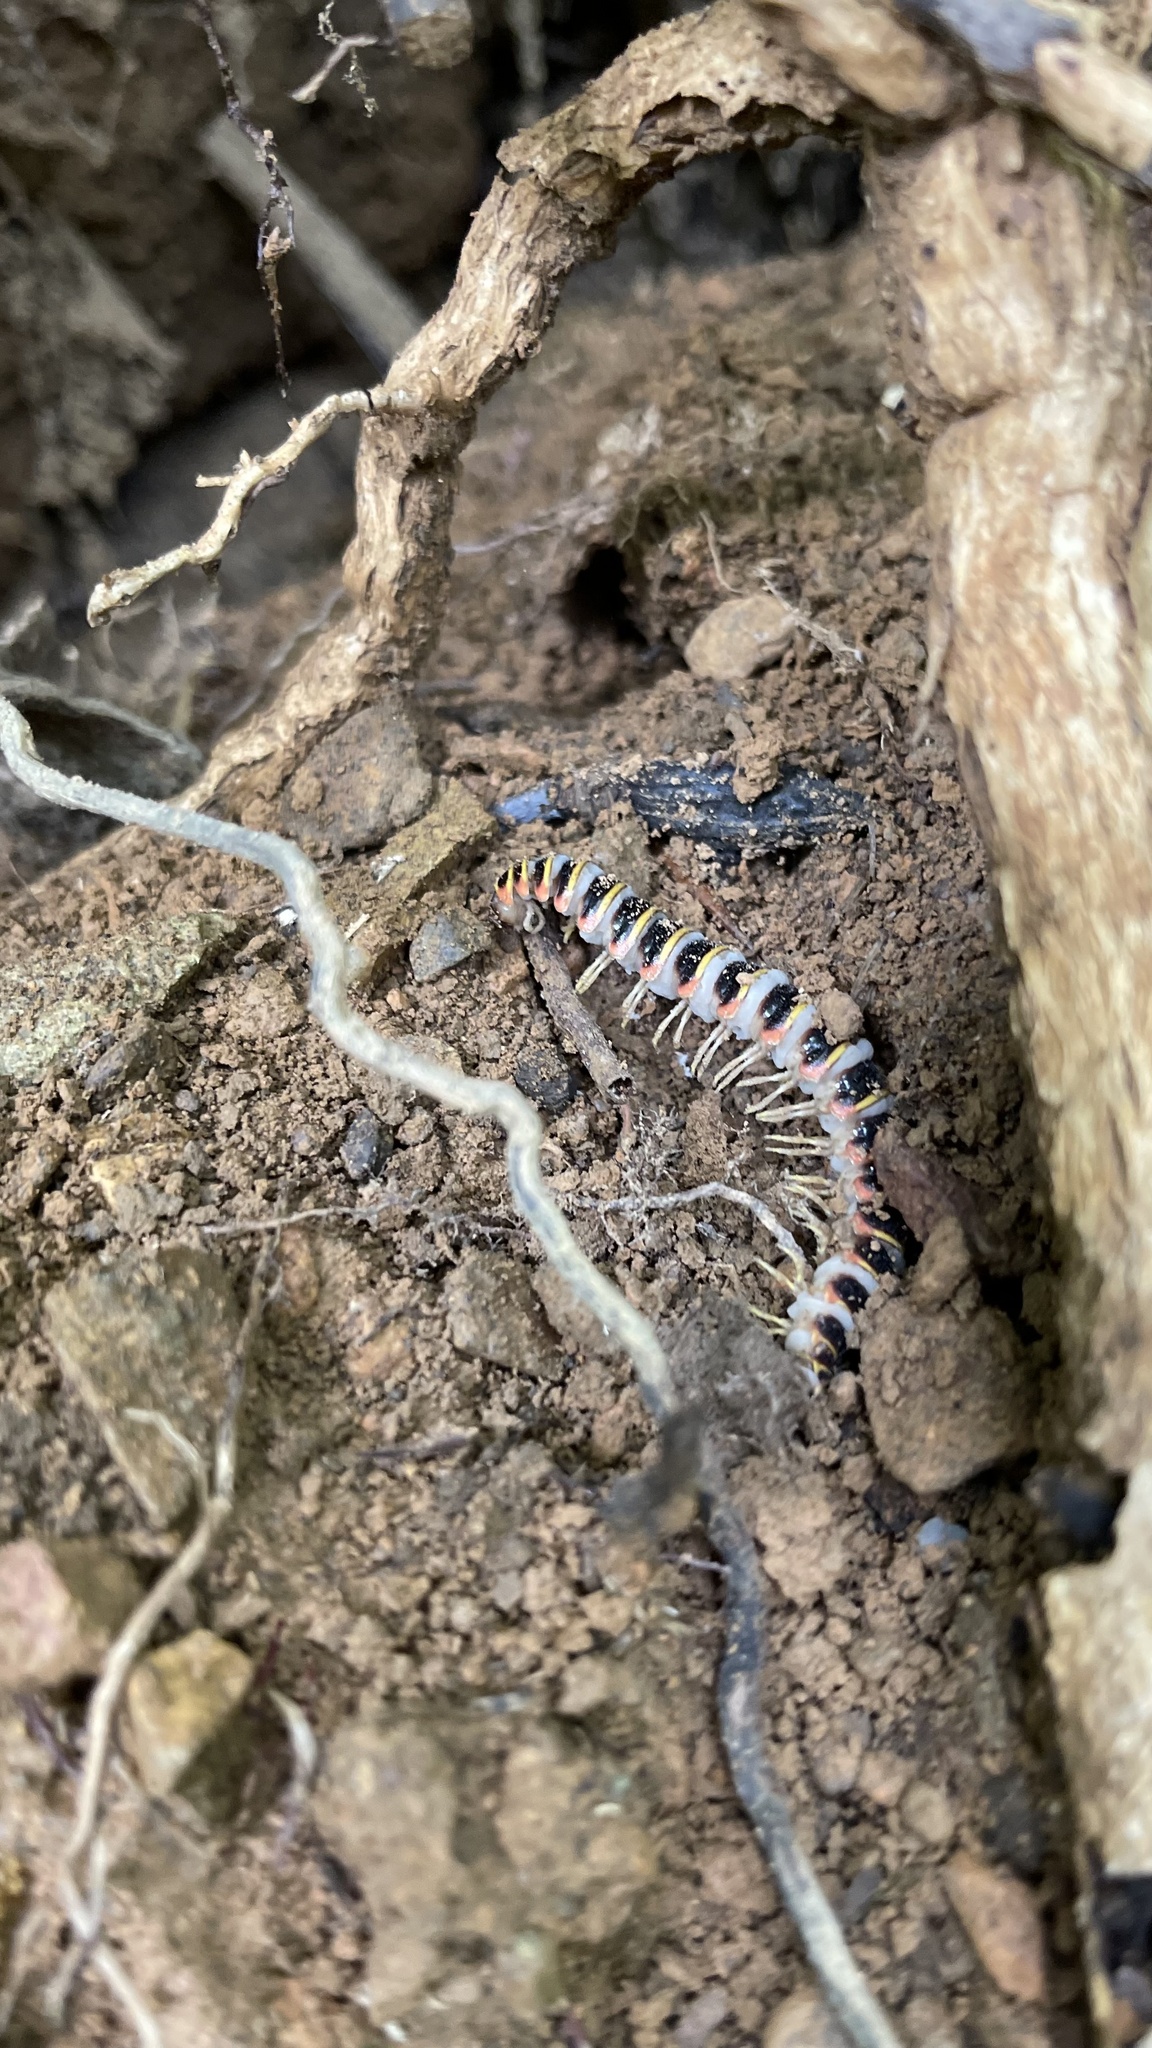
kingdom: Fungi
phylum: Entomophthoromycota
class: Entomophthoromycetes
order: Entomophthorales
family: Entomophthoraceae
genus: Arthrophaga
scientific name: Arthrophaga myriapodina
